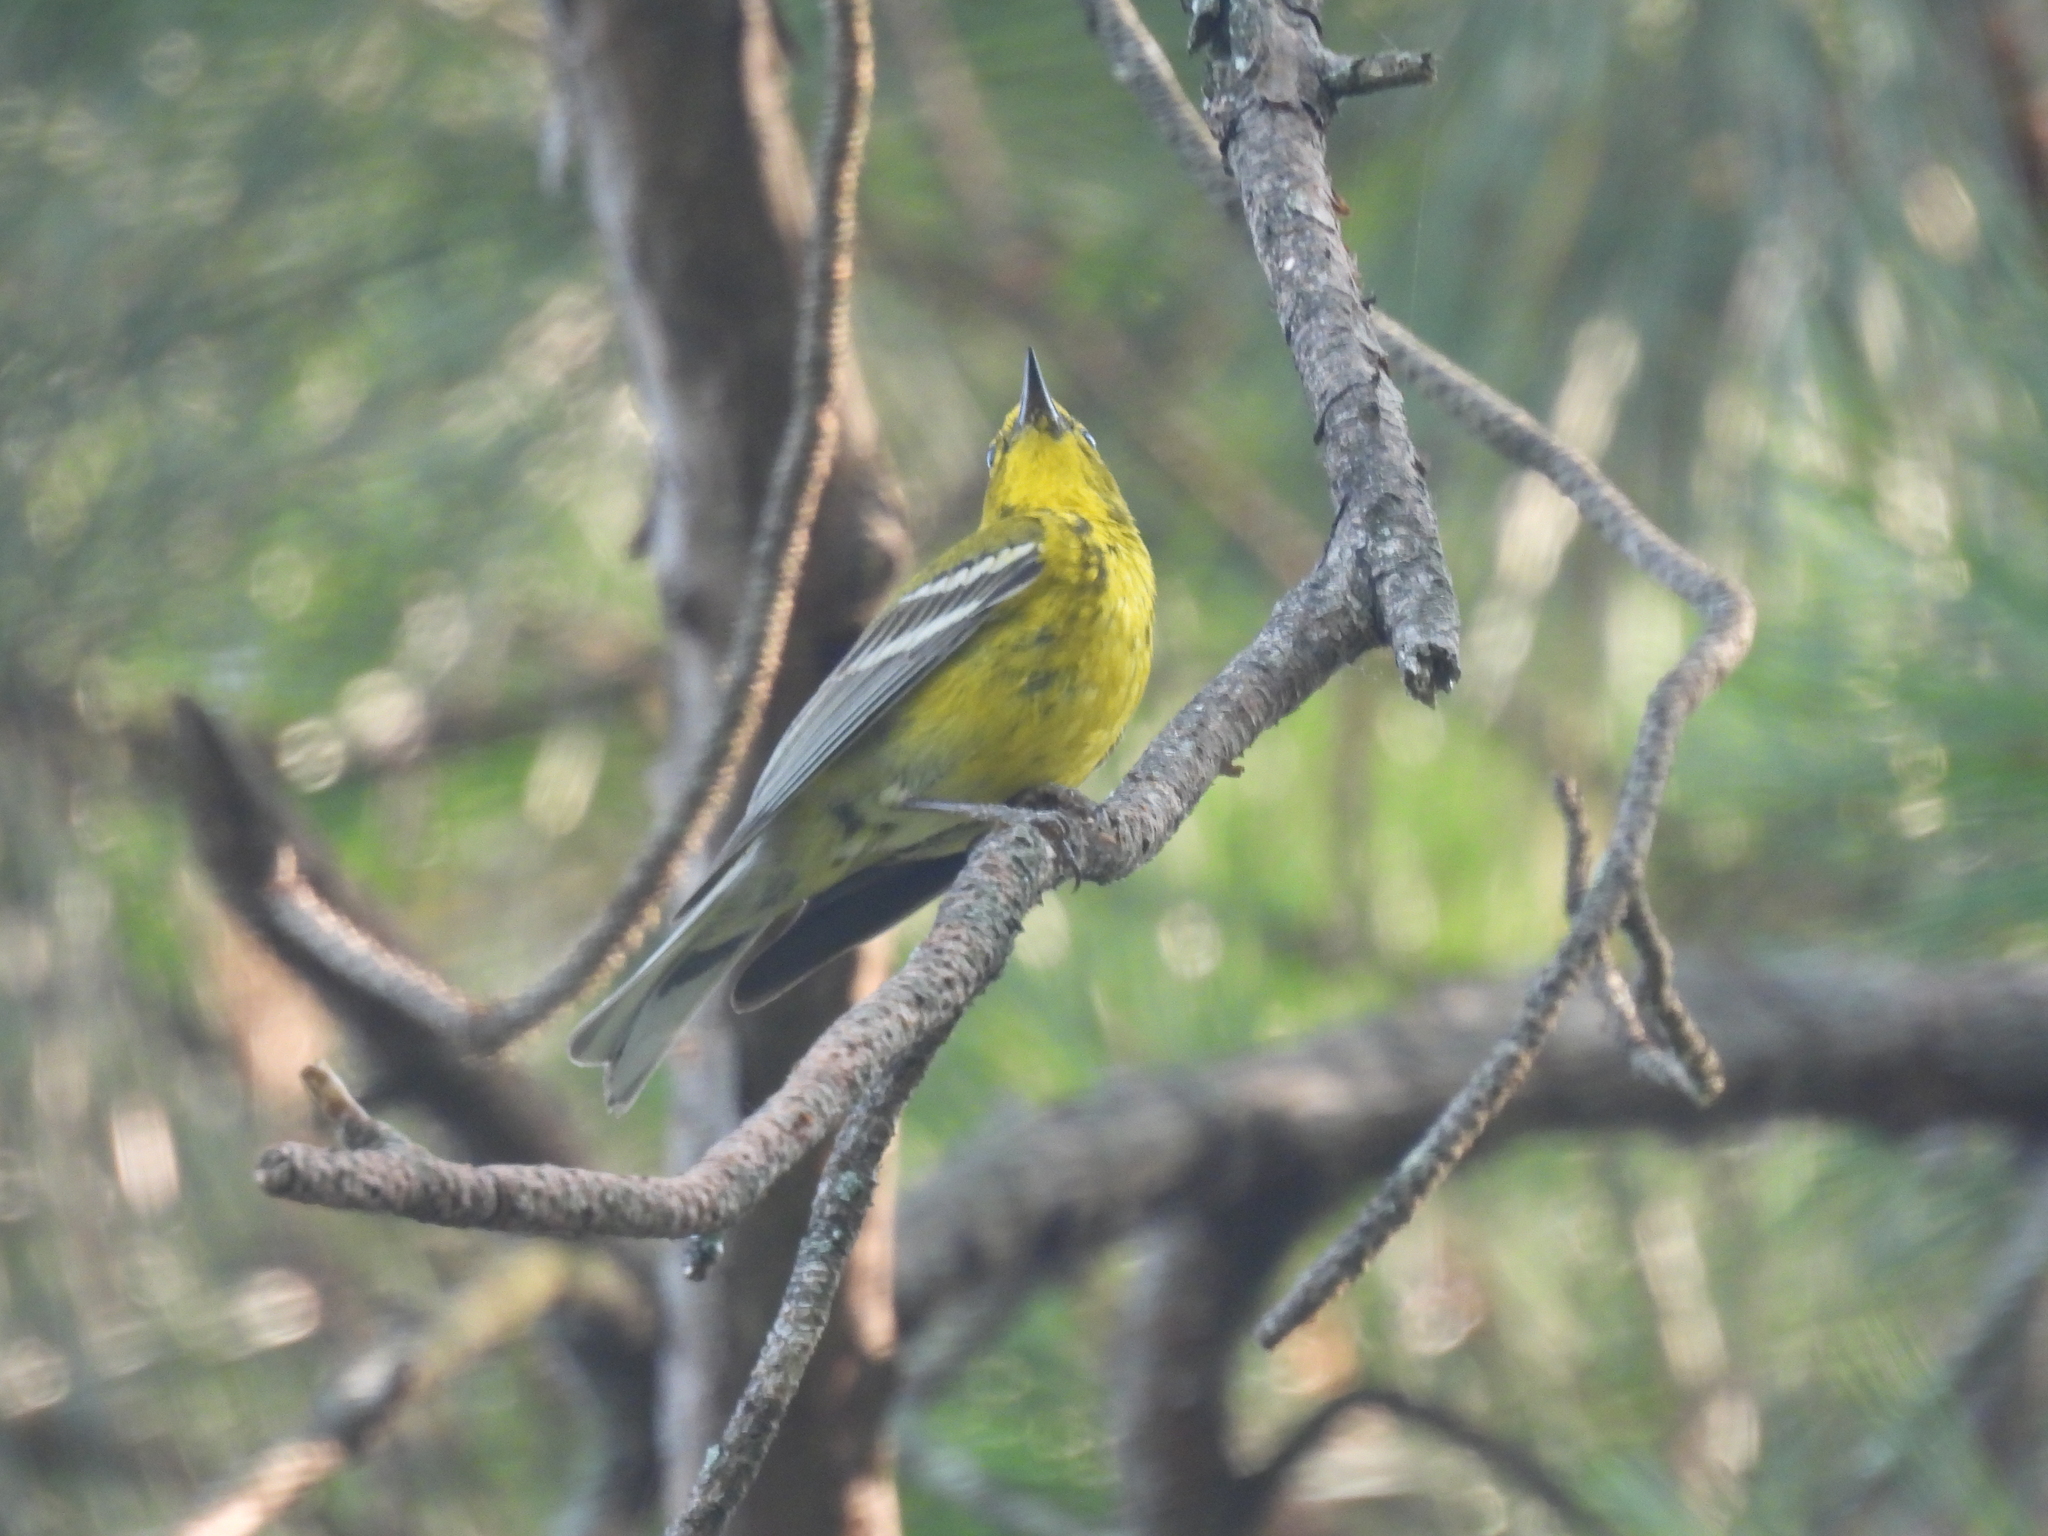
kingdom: Animalia
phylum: Chordata
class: Aves
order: Passeriformes
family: Parulidae
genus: Setophaga
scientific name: Setophaga pinus
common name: Pine warbler
